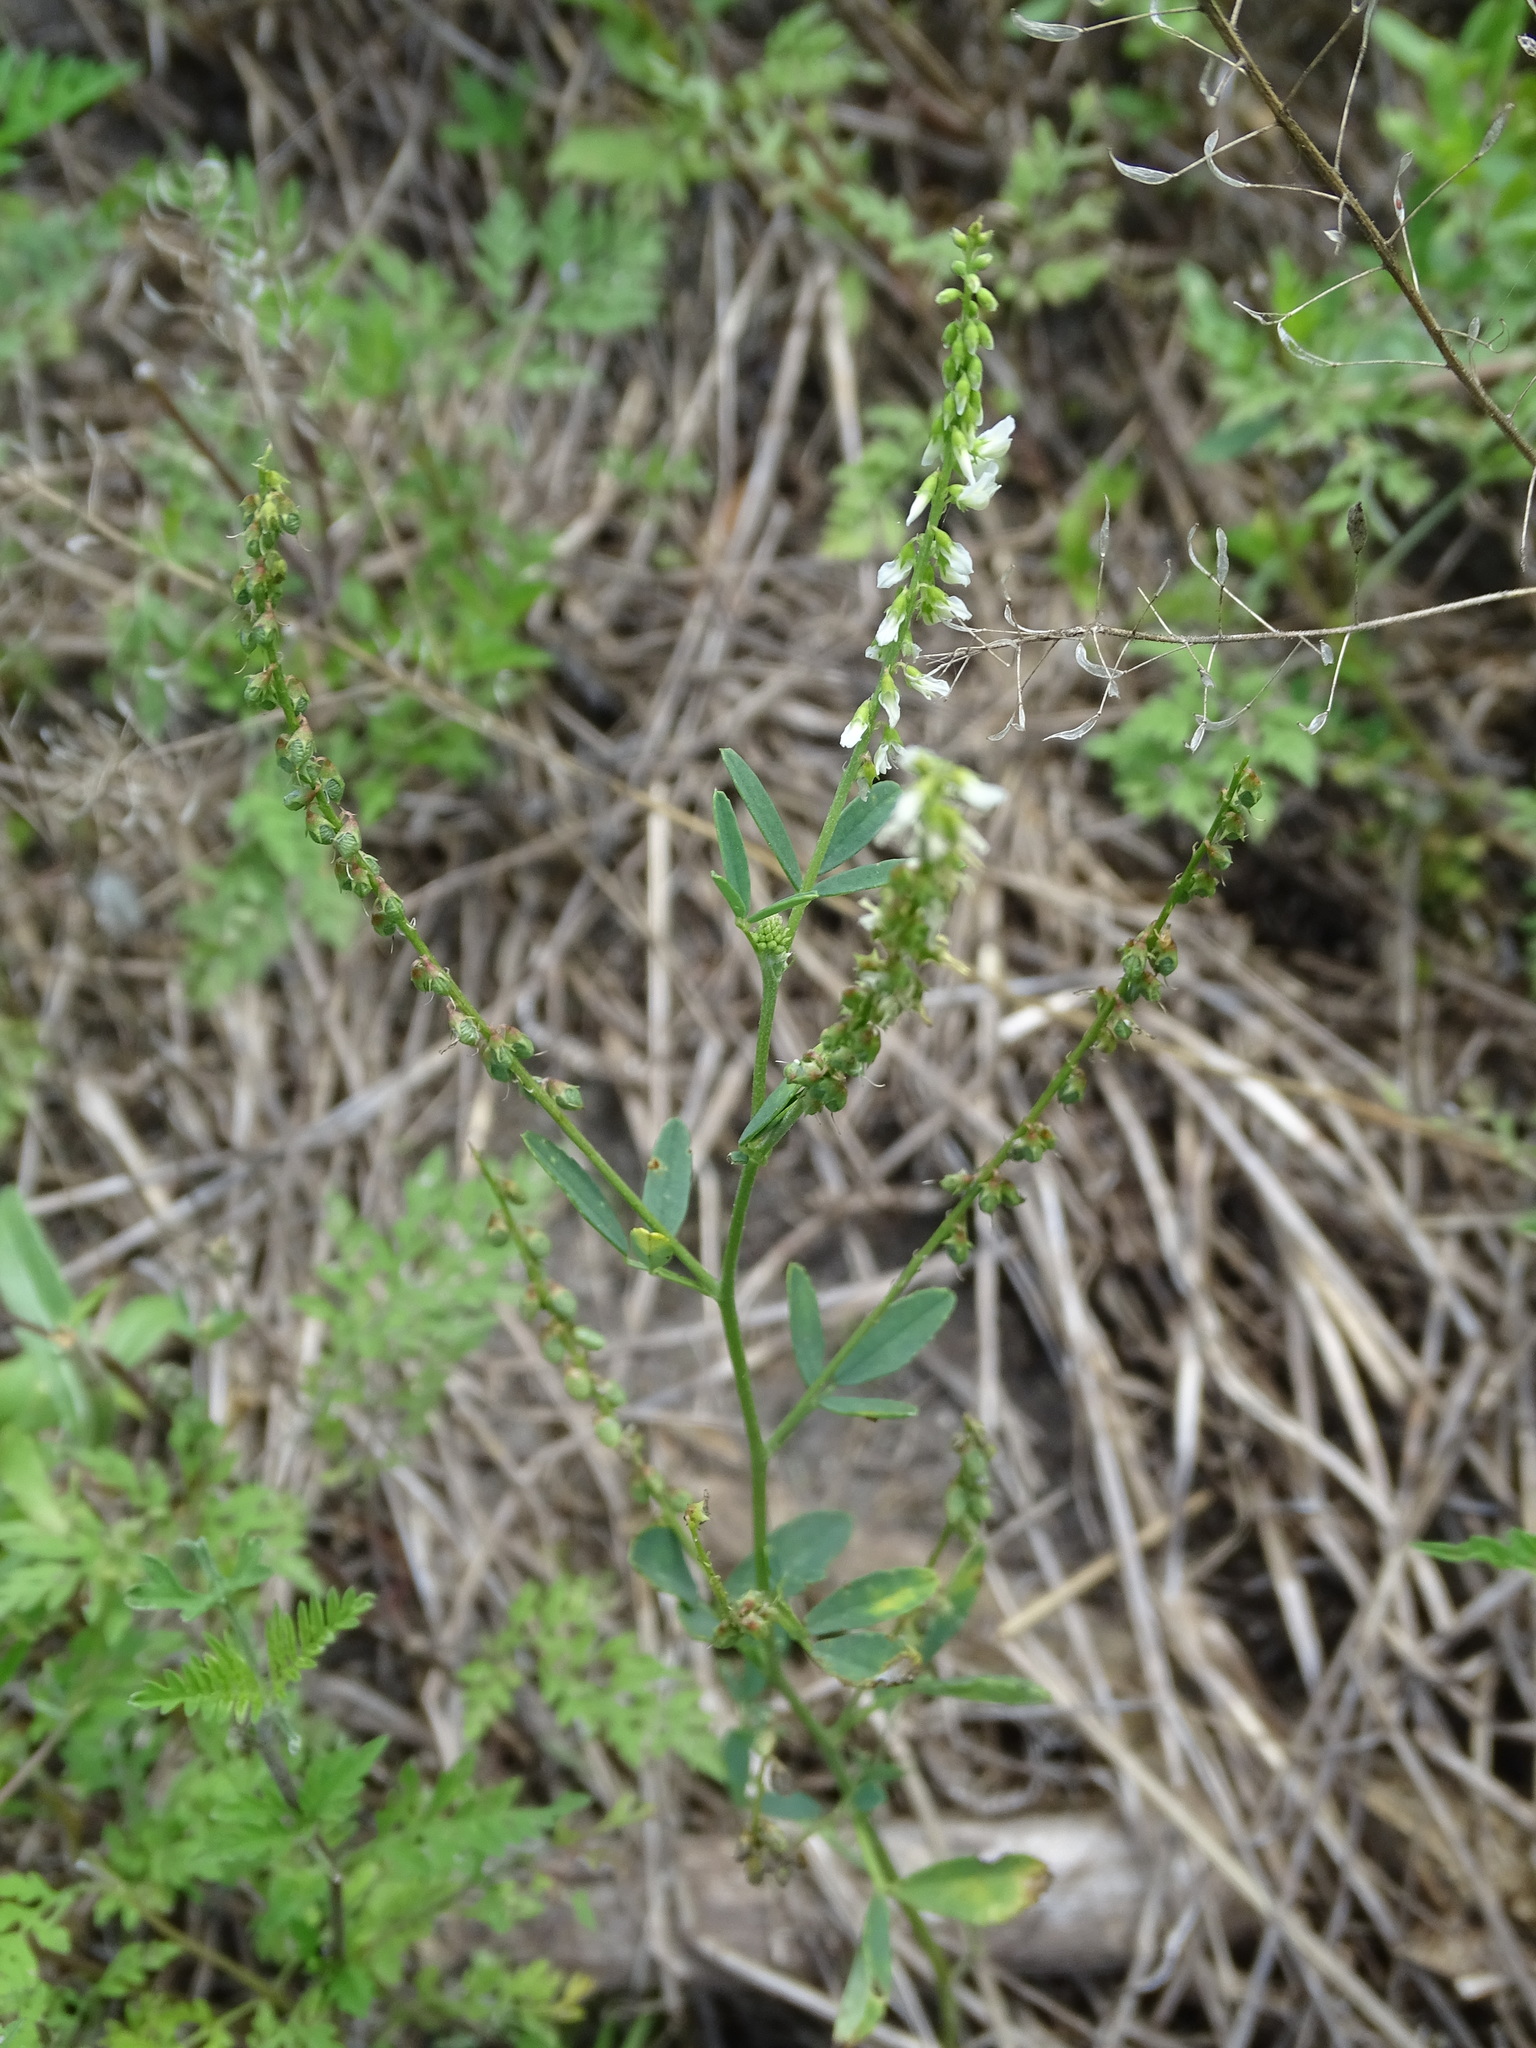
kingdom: Plantae
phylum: Tracheophyta
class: Magnoliopsida
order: Fabales
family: Fabaceae
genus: Melilotus
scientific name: Melilotus albus
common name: White melilot
